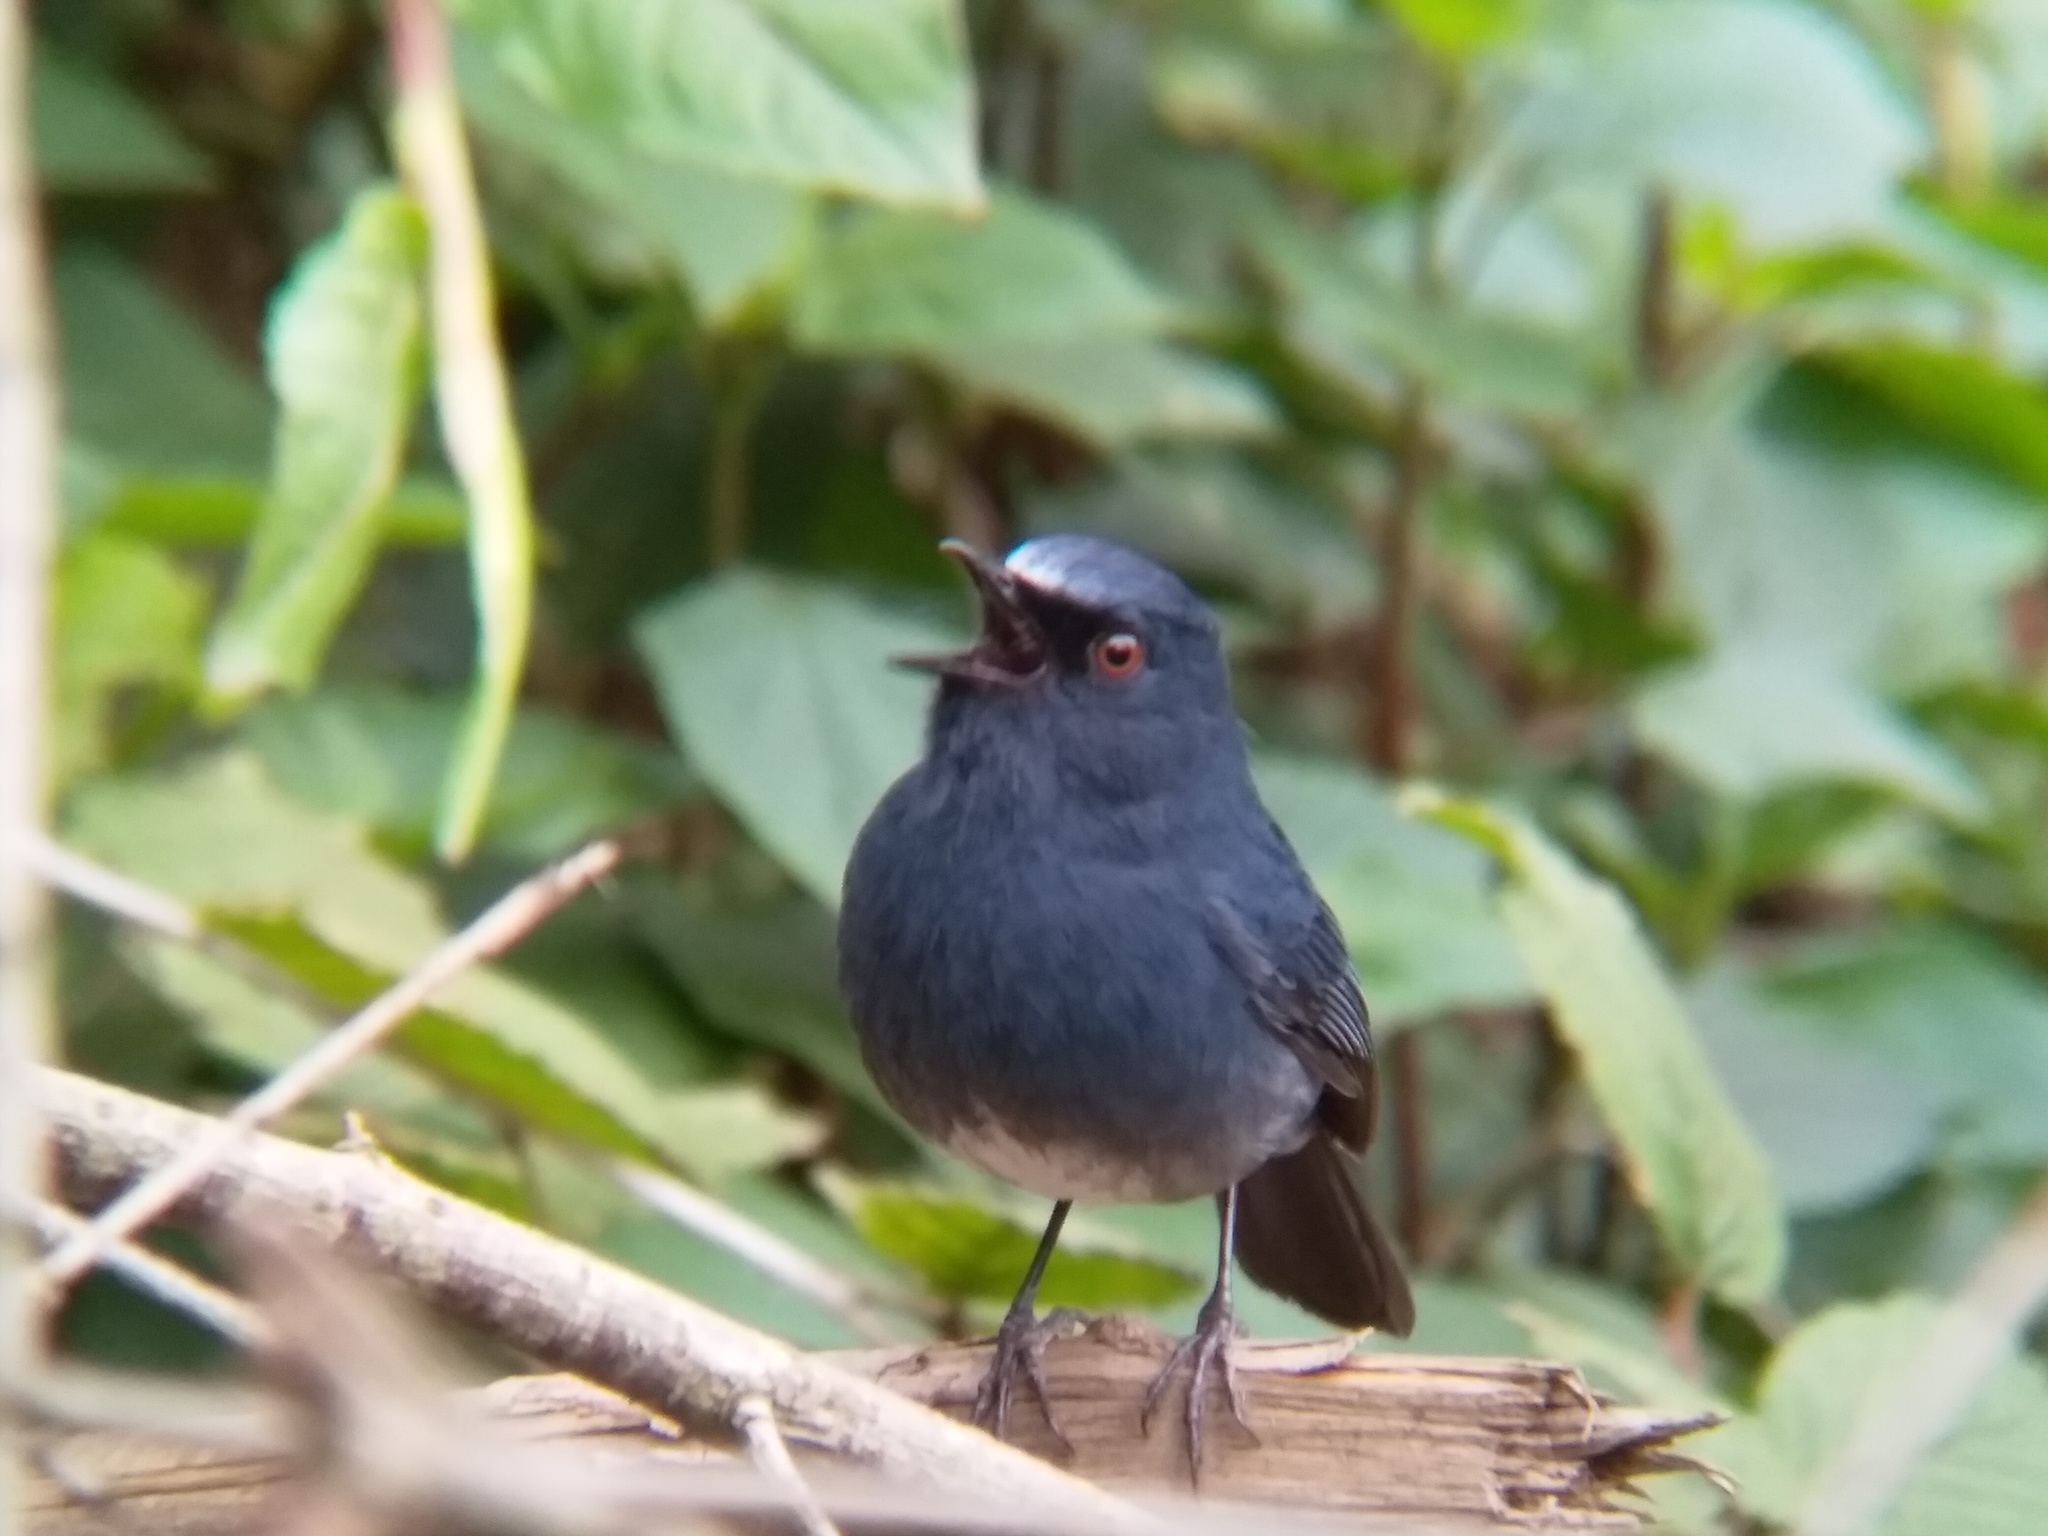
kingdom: Animalia
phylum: Chordata
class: Aves
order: Passeriformes
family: Muscicapidae
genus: Myiomela
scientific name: Myiomela albiventris
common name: White-bellied blue-robin
